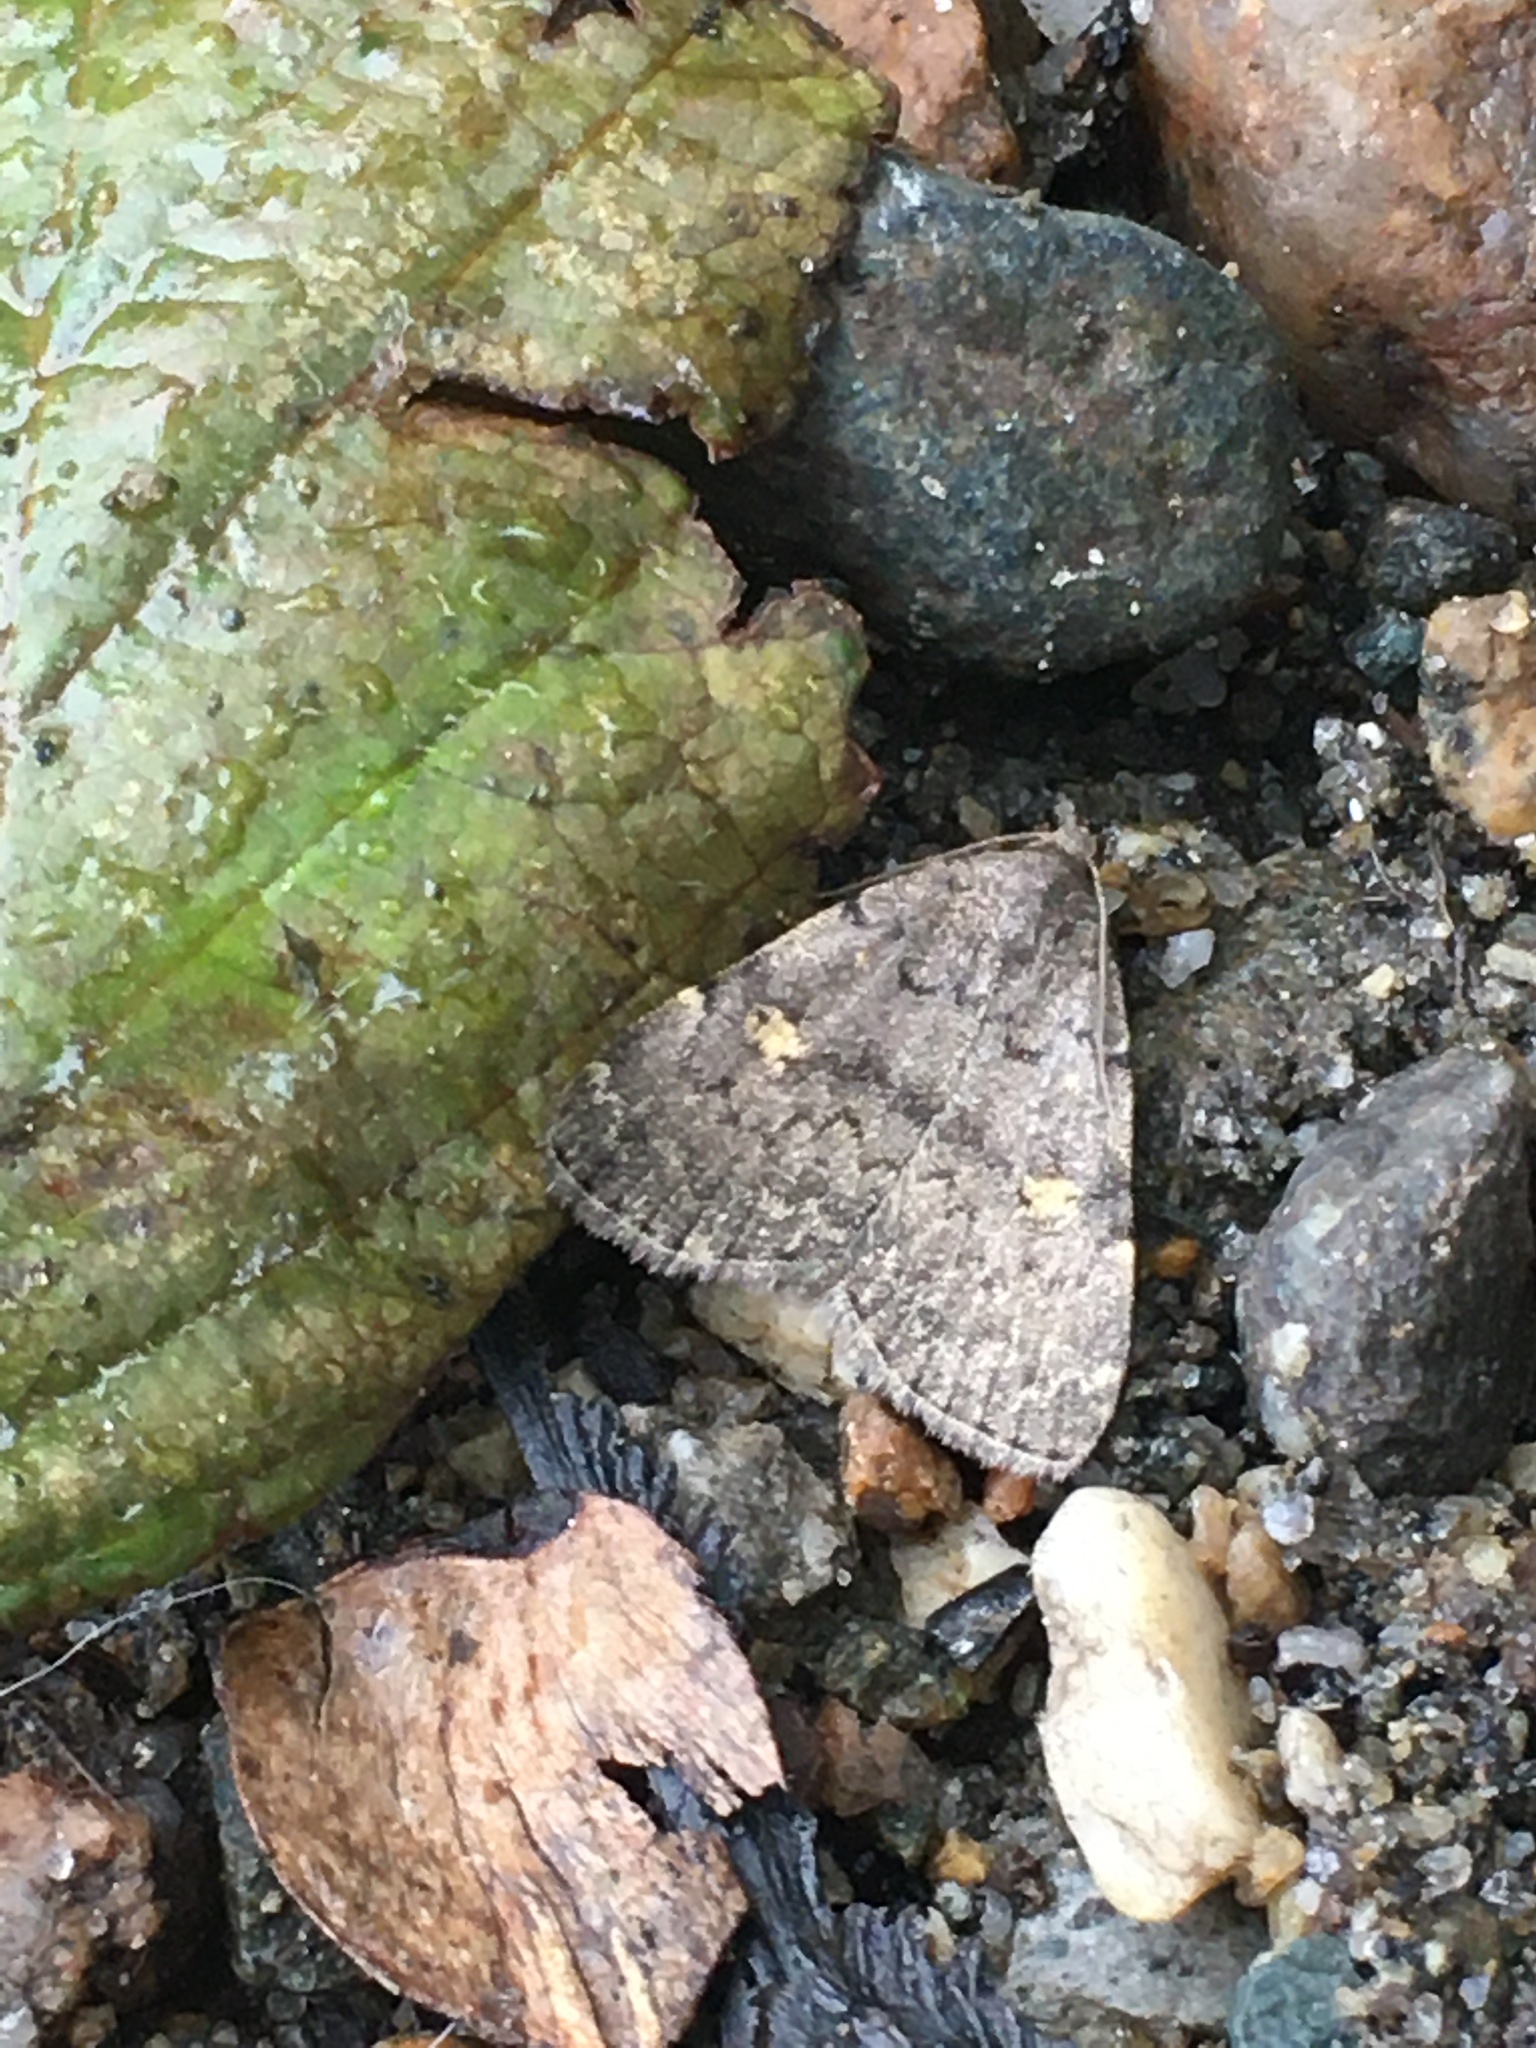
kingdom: Animalia
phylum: Arthropoda
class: Insecta
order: Lepidoptera
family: Erebidae
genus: Idia
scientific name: Idia aemula
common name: Common idia moth
